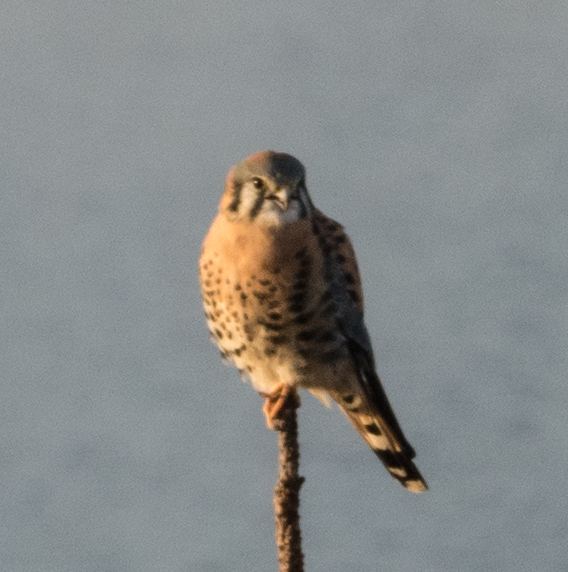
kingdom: Animalia
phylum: Chordata
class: Aves
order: Falconiformes
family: Falconidae
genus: Falco
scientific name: Falco sparverius
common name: American kestrel
